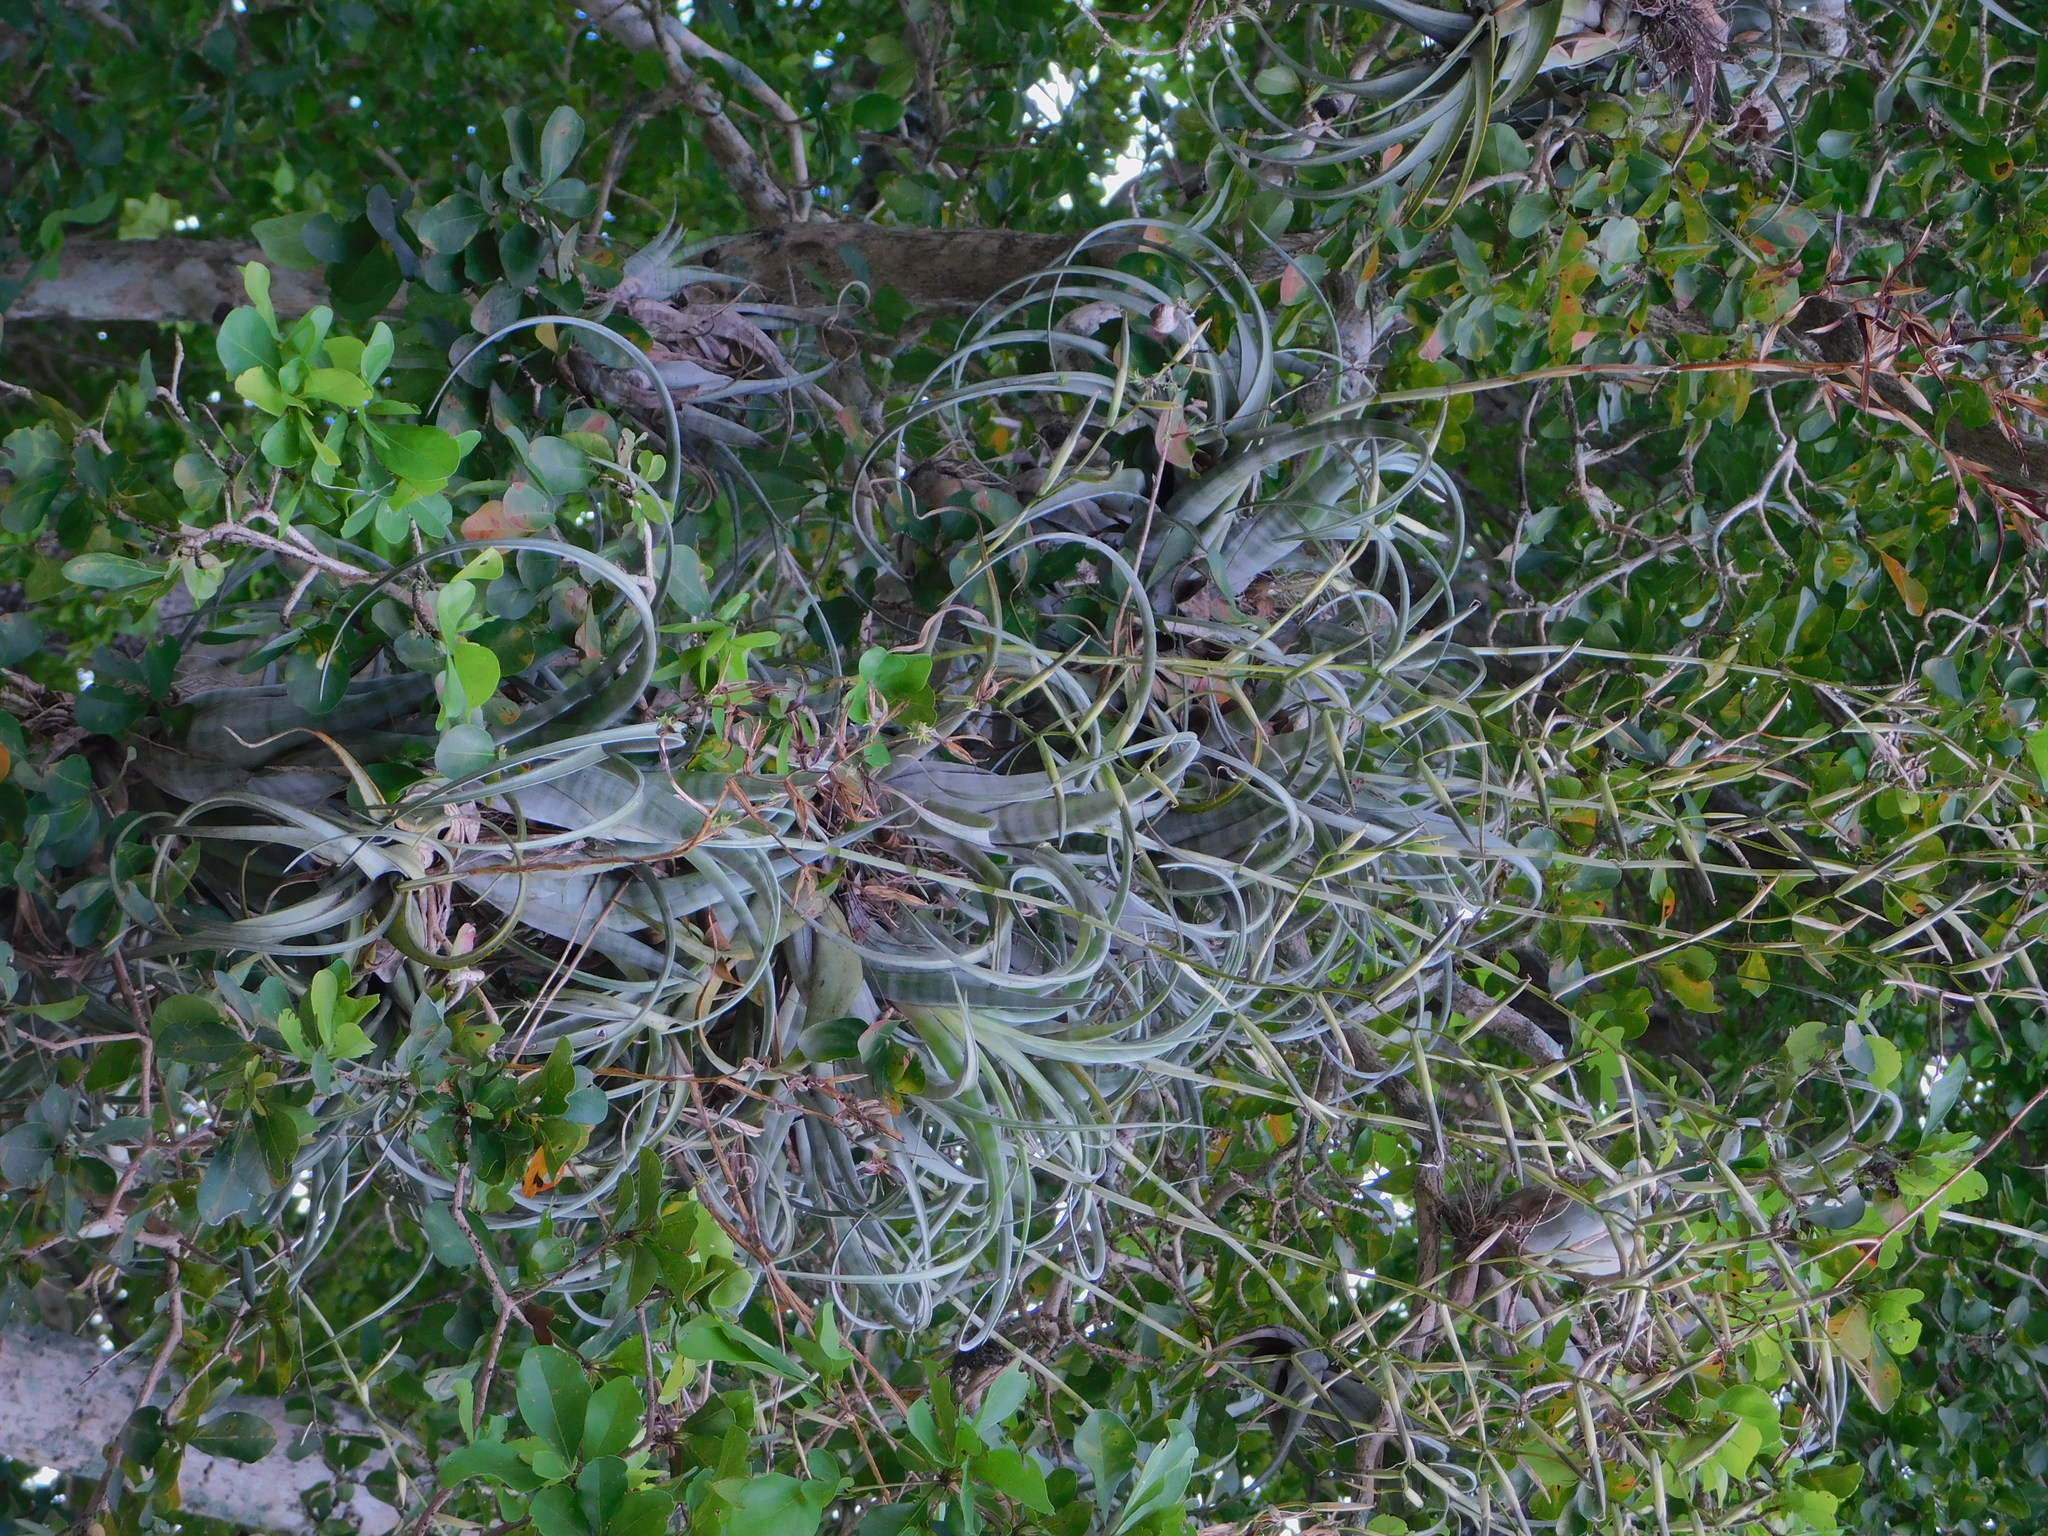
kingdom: Plantae
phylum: Tracheophyta
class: Liliopsida
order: Poales
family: Bromeliaceae
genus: Tillandsia
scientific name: Tillandsia flexuosa
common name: Banded airplant
